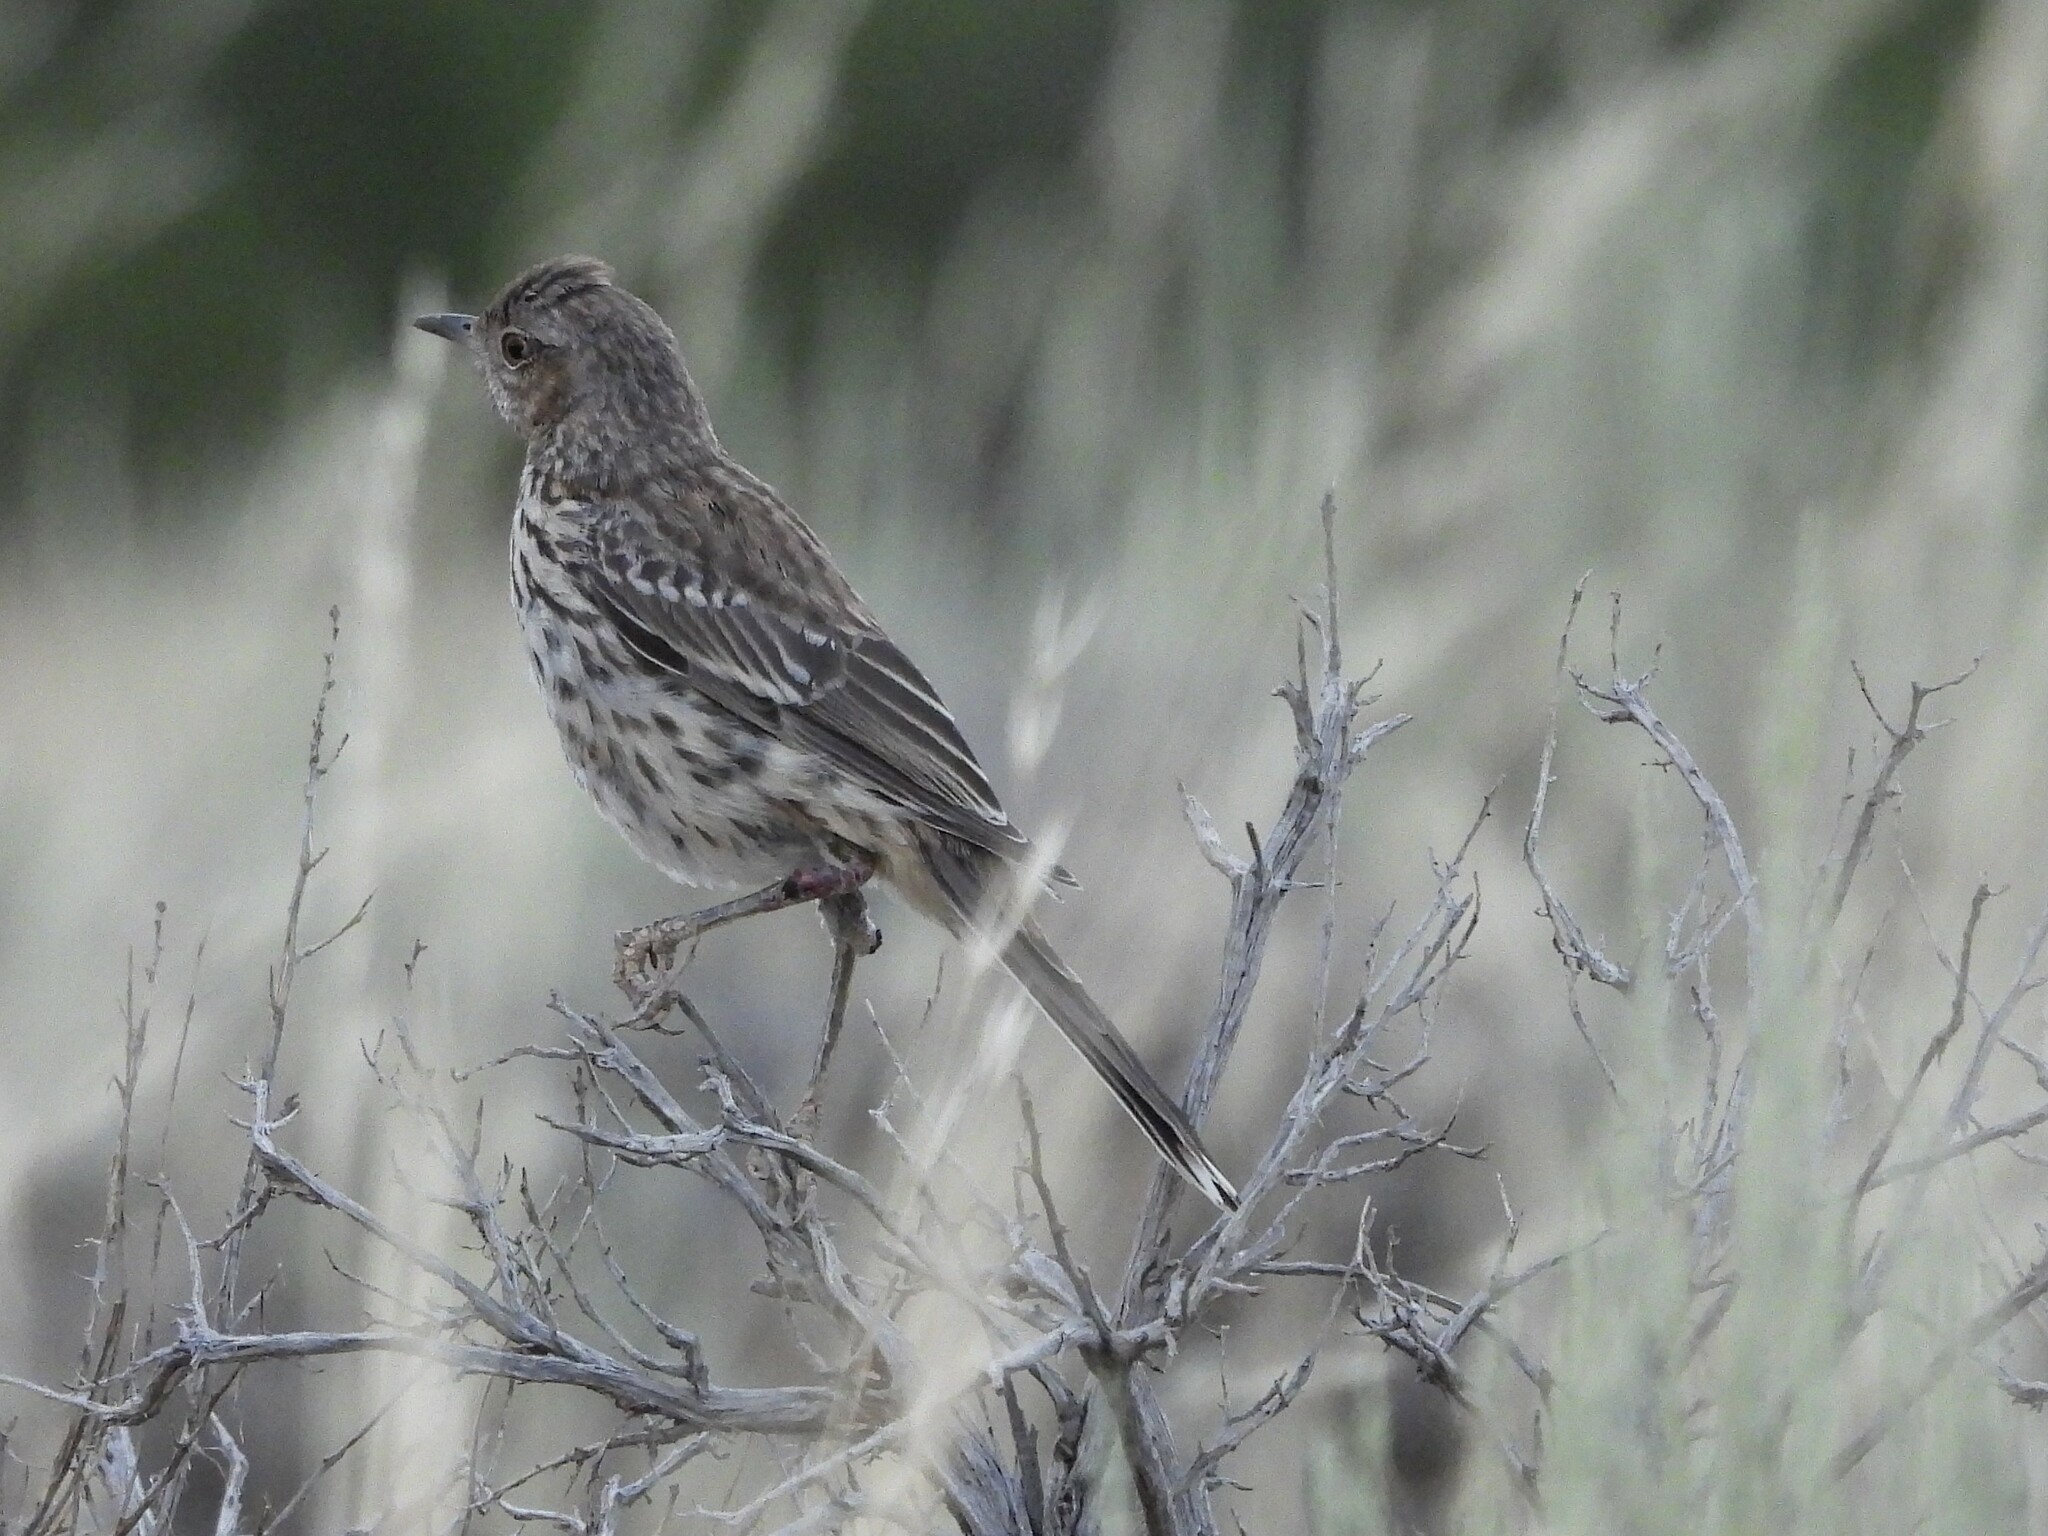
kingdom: Animalia
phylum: Chordata
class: Aves
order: Passeriformes
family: Mimidae
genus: Oreoscoptes
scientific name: Oreoscoptes montanus
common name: Sage thrasher
